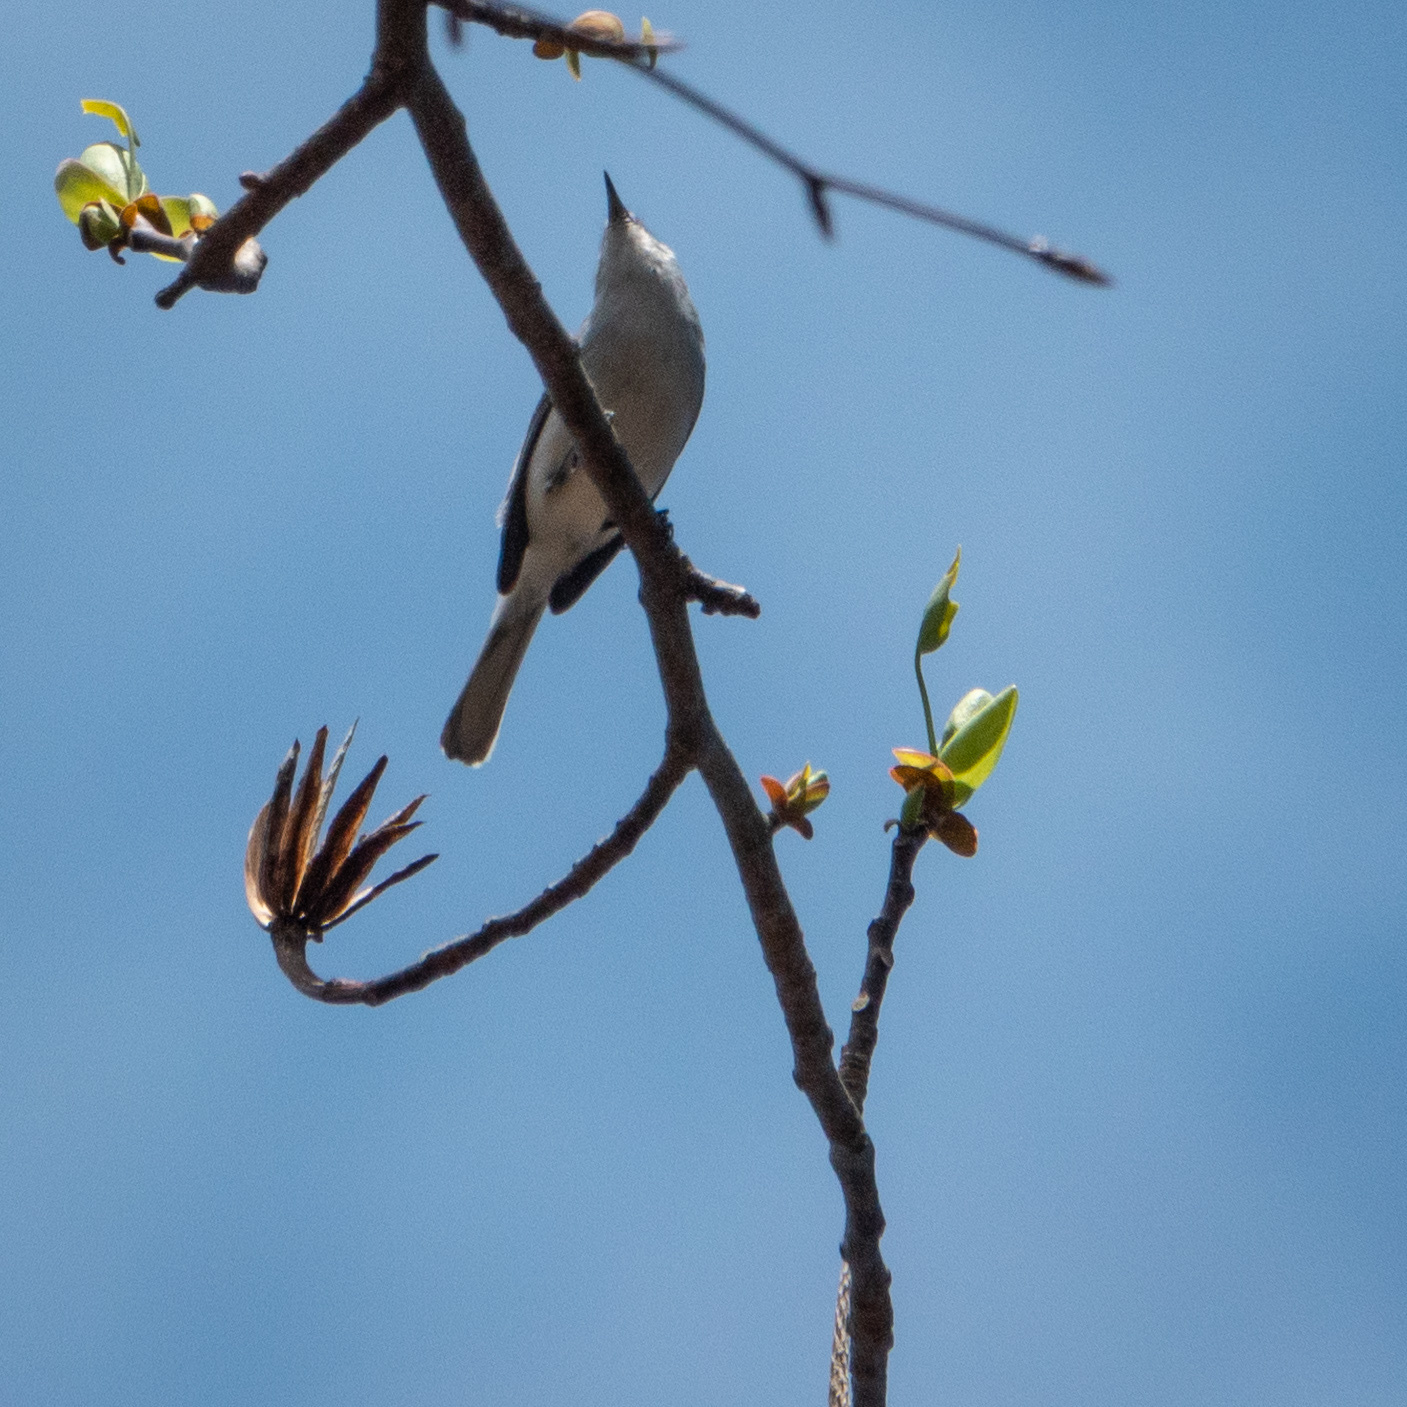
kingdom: Animalia
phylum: Chordata
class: Aves
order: Passeriformes
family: Polioptilidae
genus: Polioptila
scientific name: Polioptila caerulea
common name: Blue-gray gnatcatcher
